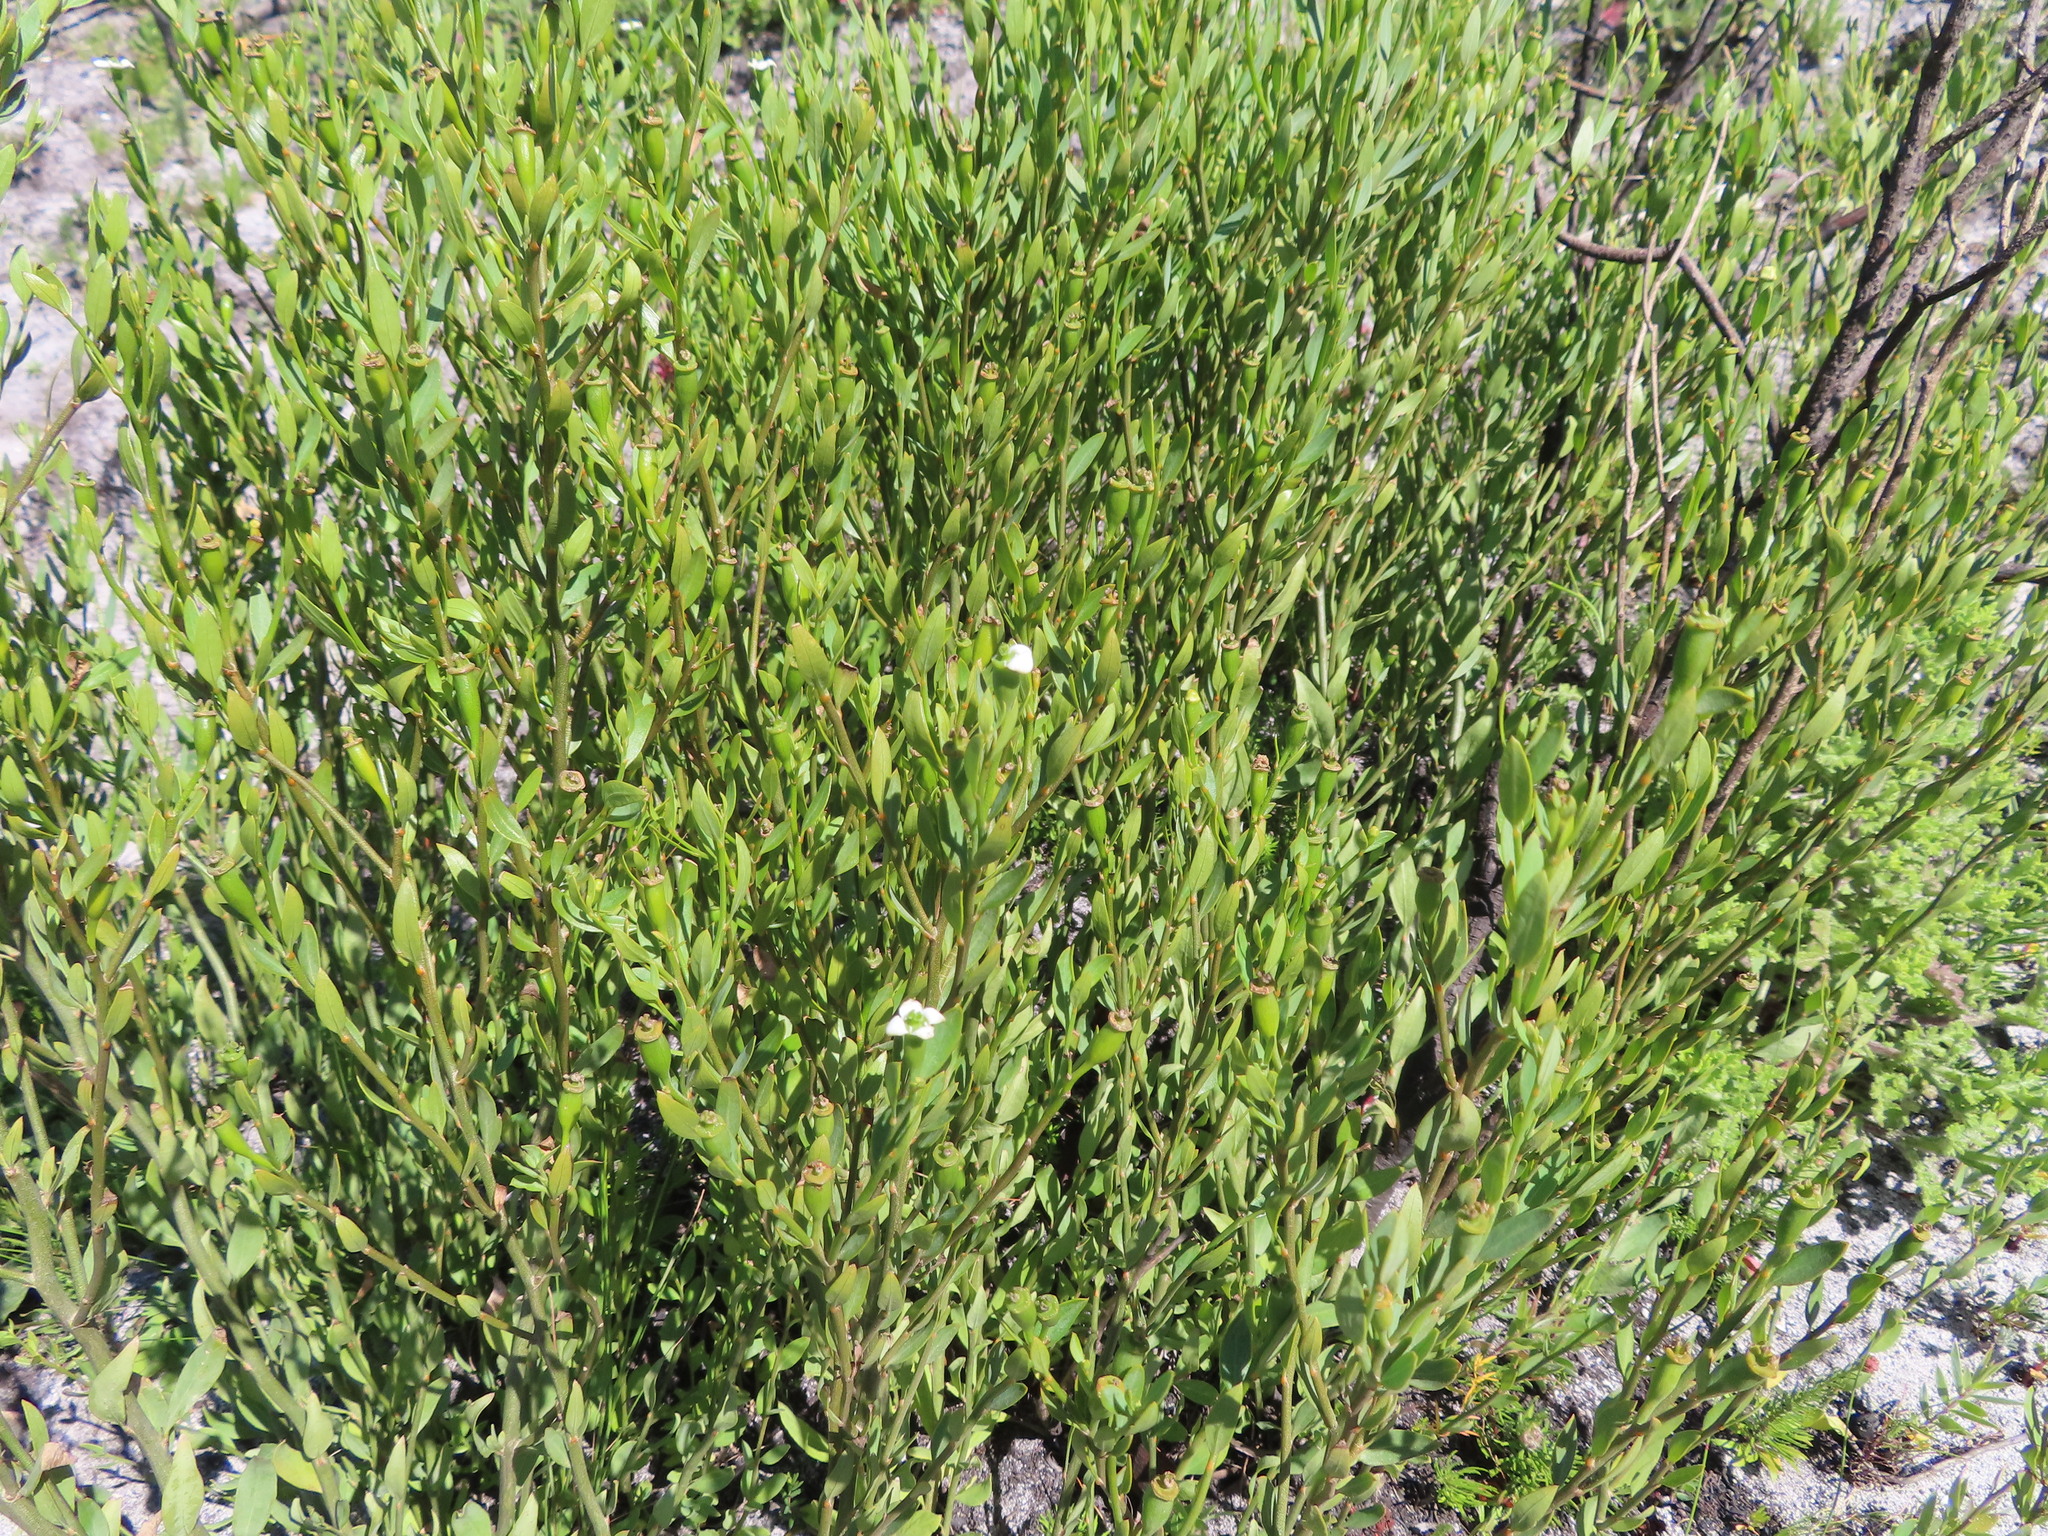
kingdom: Plantae
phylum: Tracheophyta
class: Magnoliopsida
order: Solanales
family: Montiniaceae
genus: Montinia
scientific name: Montinia caryophyllacea
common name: Wild clove-bush
